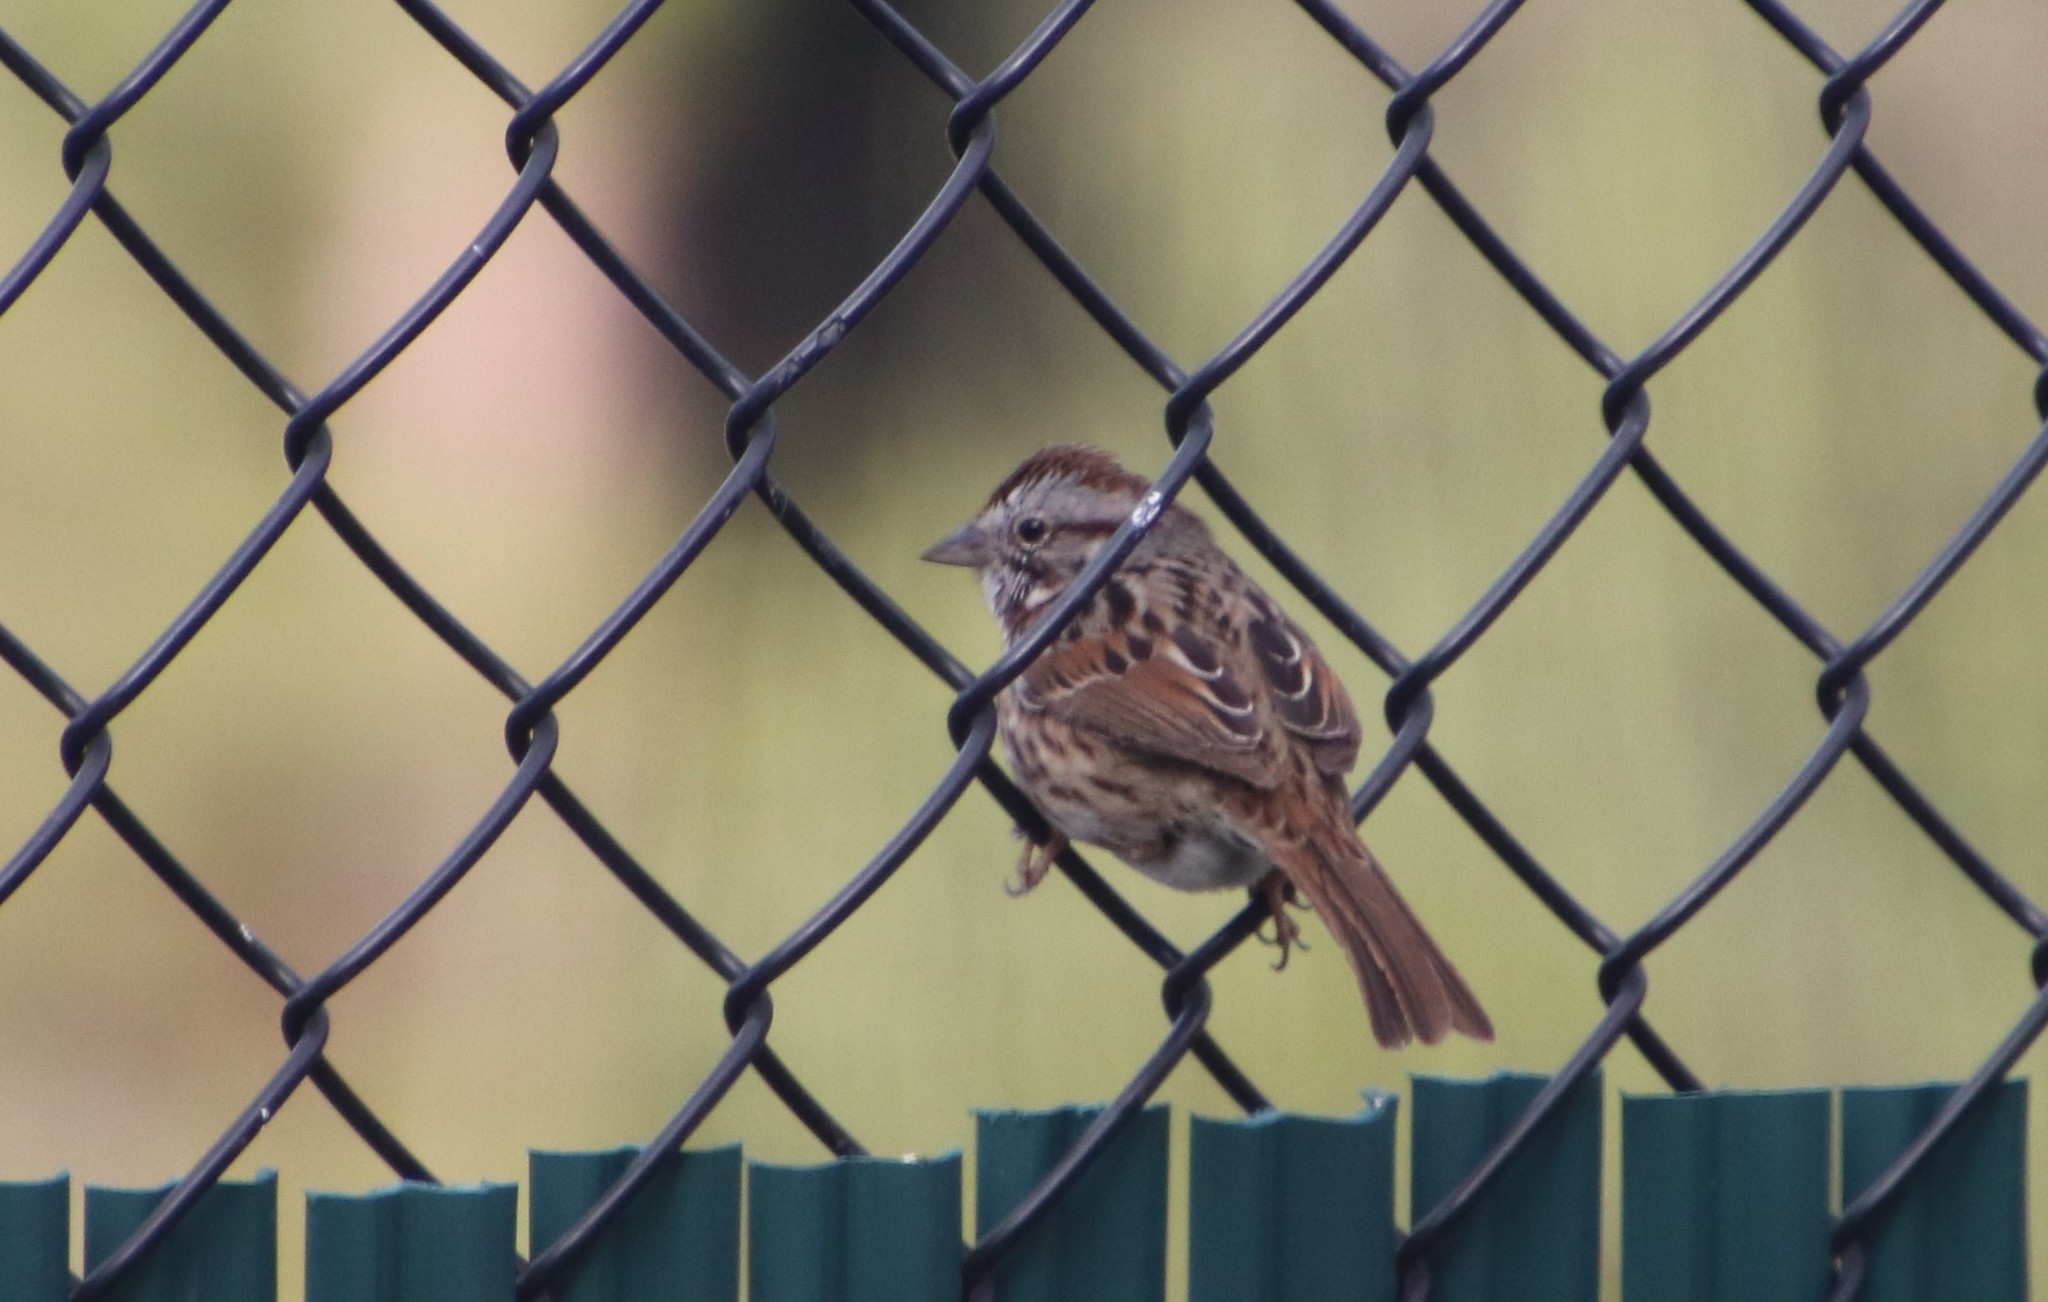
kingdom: Animalia
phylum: Chordata
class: Aves
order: Passeriformes
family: Passerellidae
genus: Melospiza
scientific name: Melospiza melodia
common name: Song sparrow
